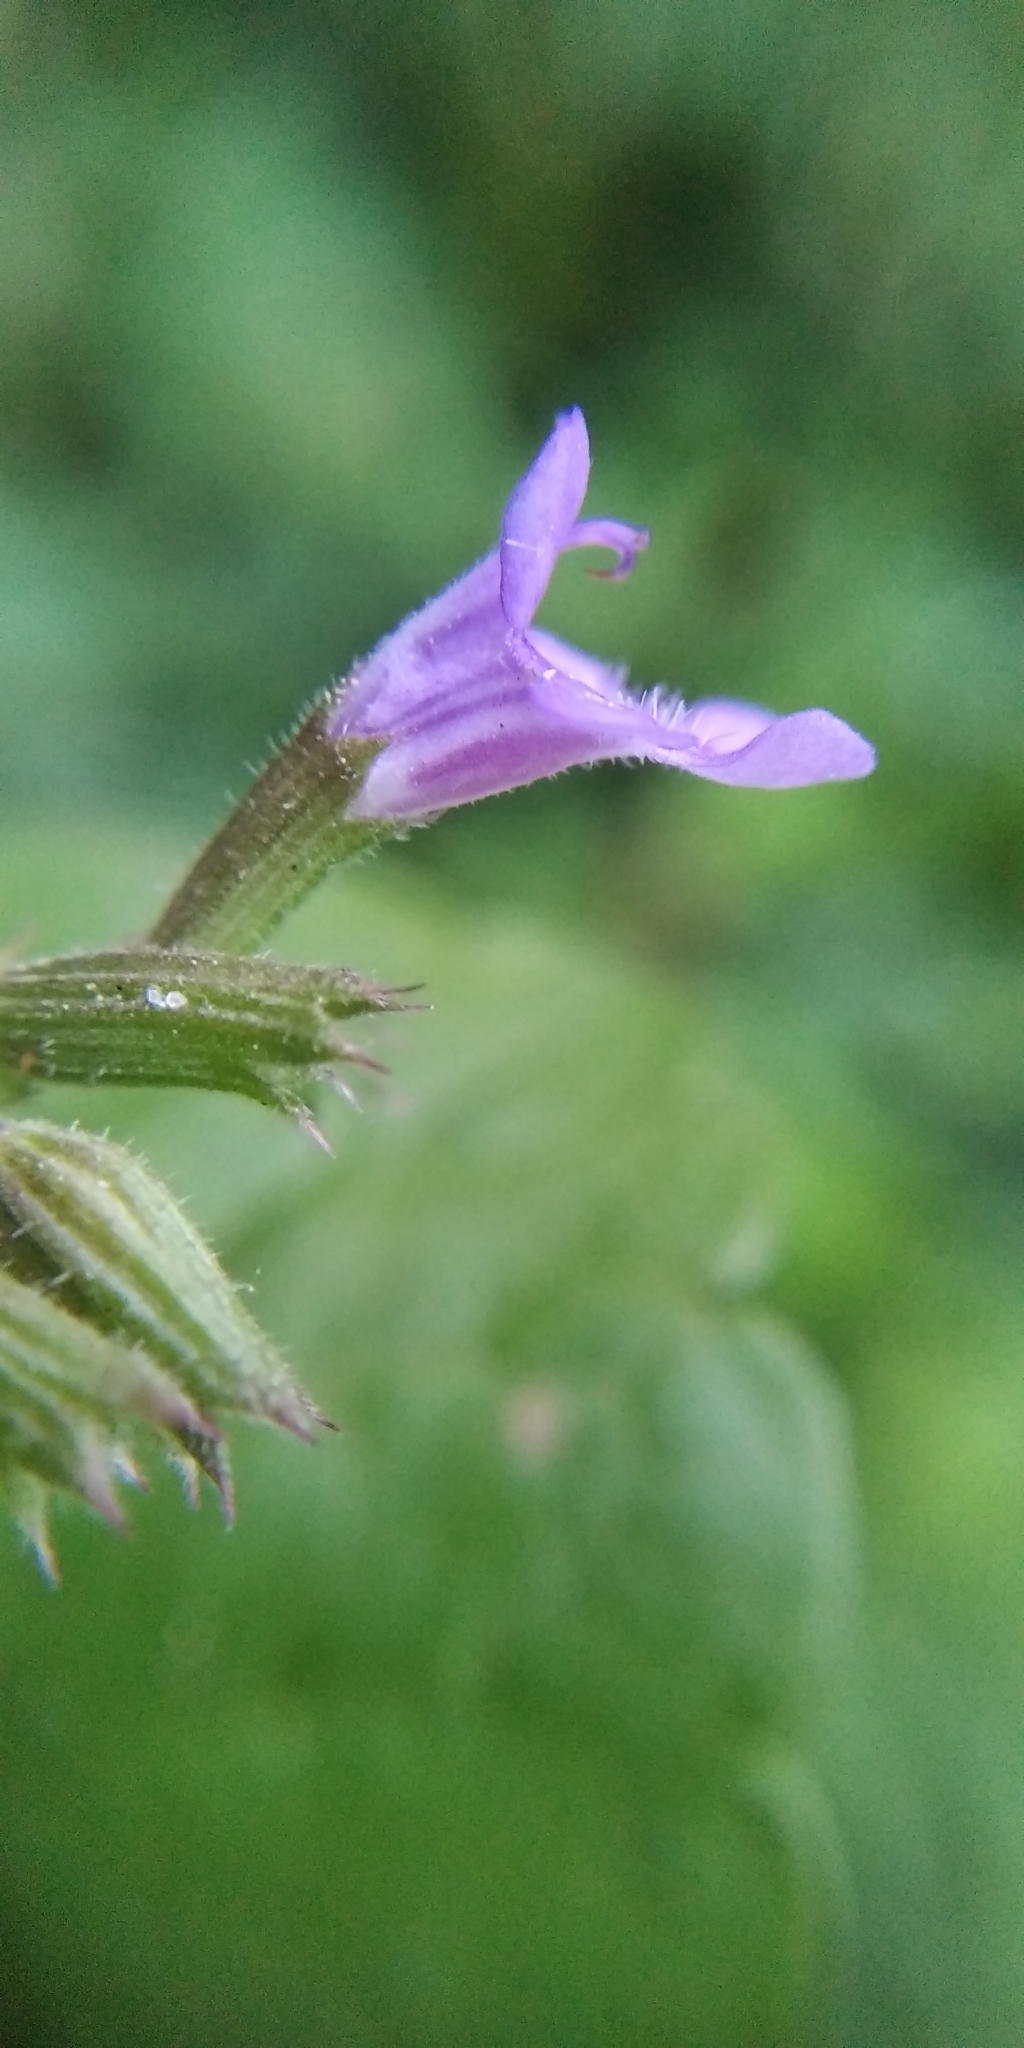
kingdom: Plantae
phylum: Tracheophyta
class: Magnoliopsida
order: Lamiales
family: Lamiaceae
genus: Glechoma
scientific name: Glechoma hederacea
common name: Ground ivy
